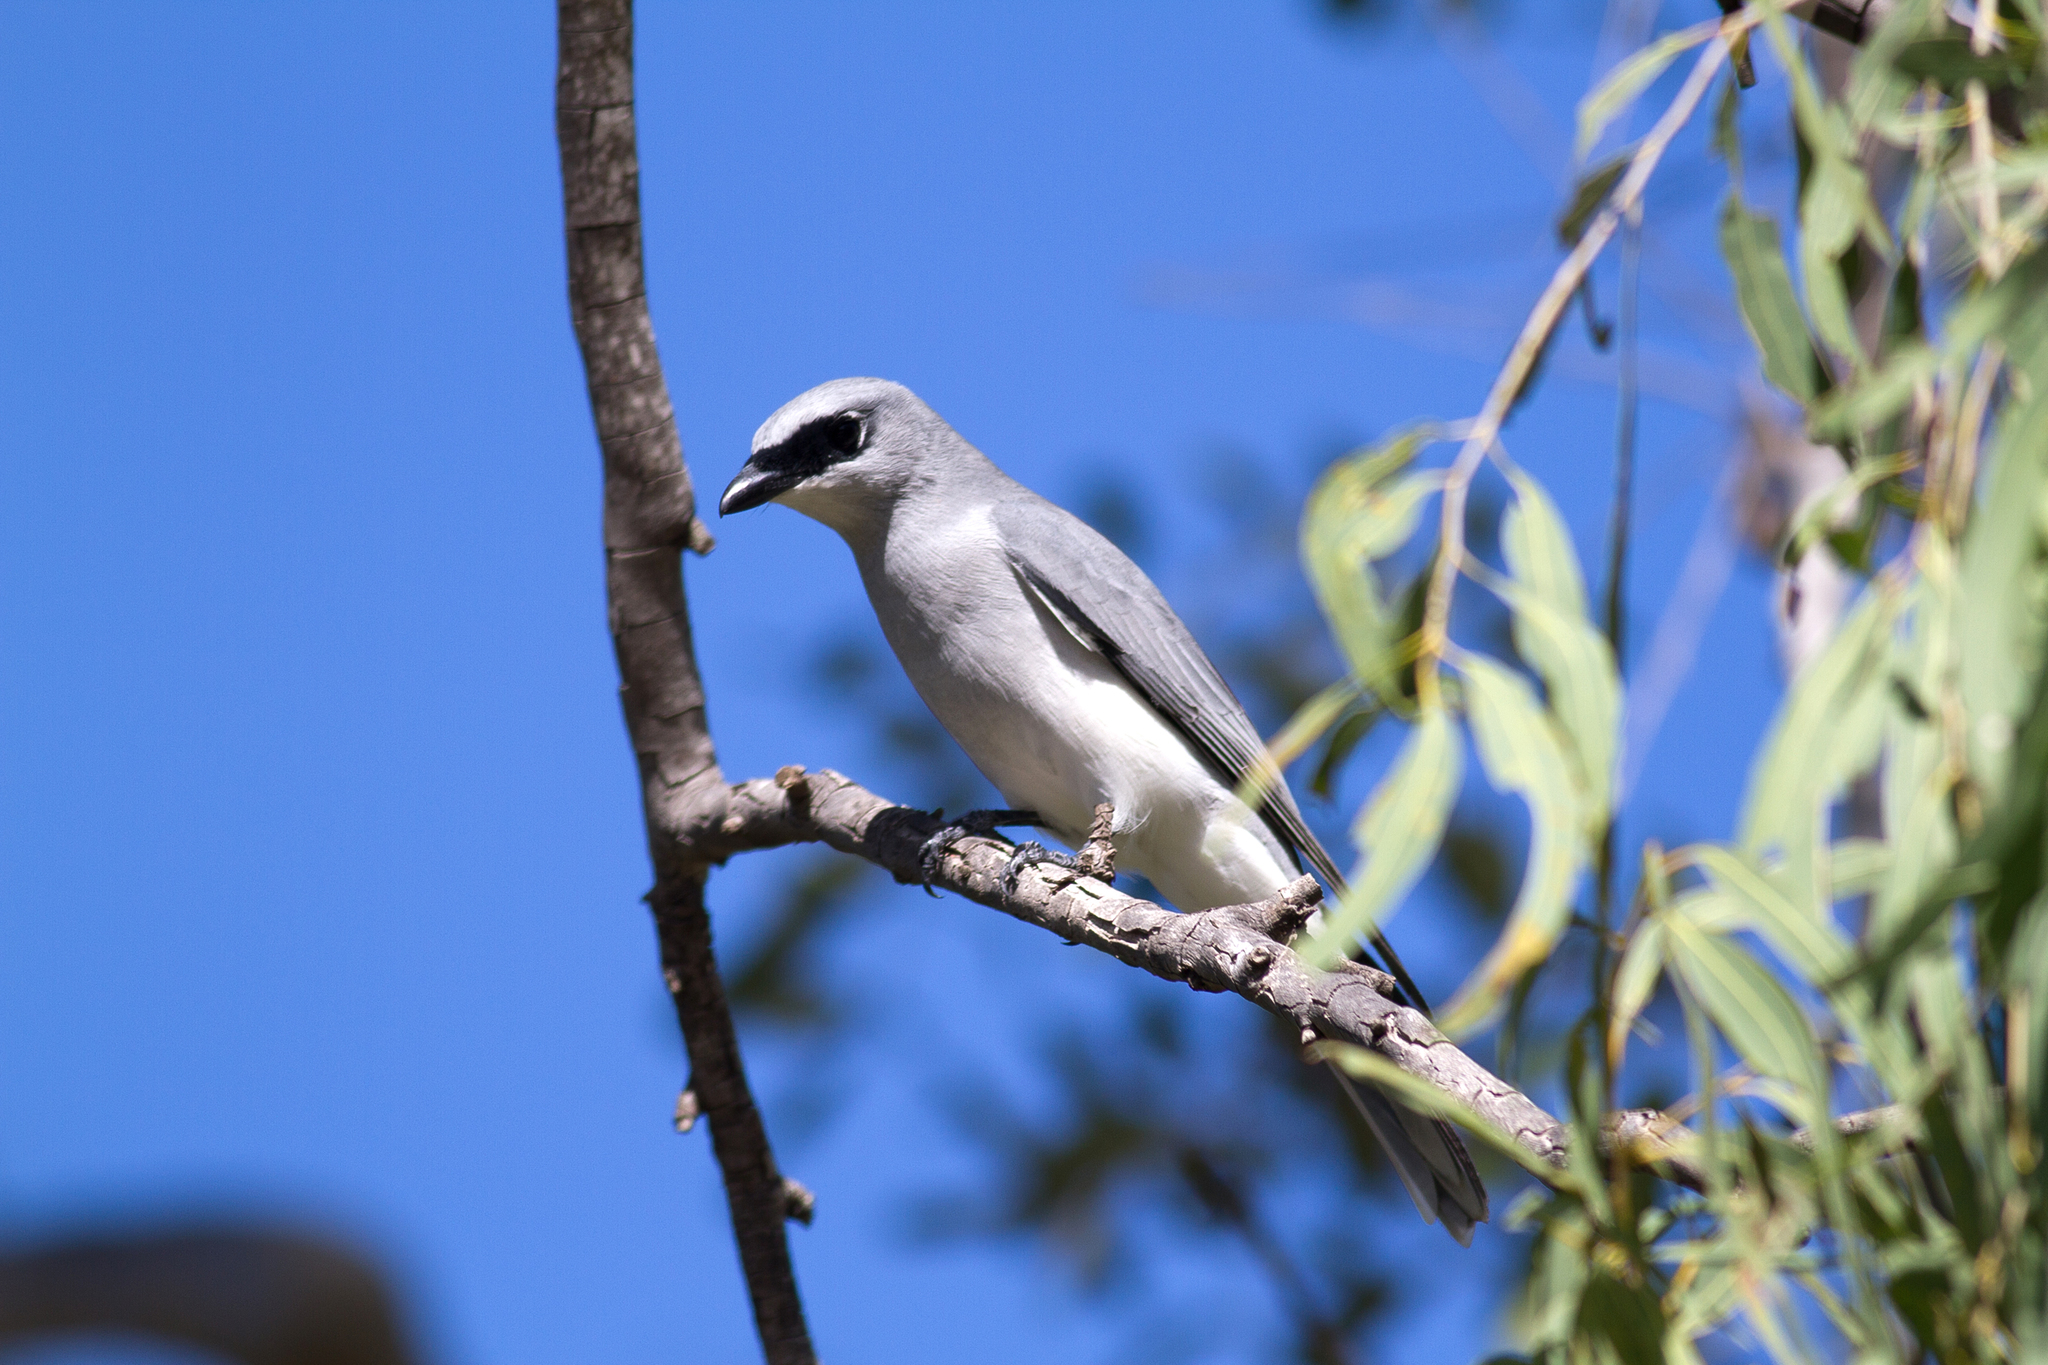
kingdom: Animalia
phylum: Chordata
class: Aves
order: Passeriformes
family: Campephagidae
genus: Coracina
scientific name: Coracina papuensis
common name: White-bellied cuckooshrike
